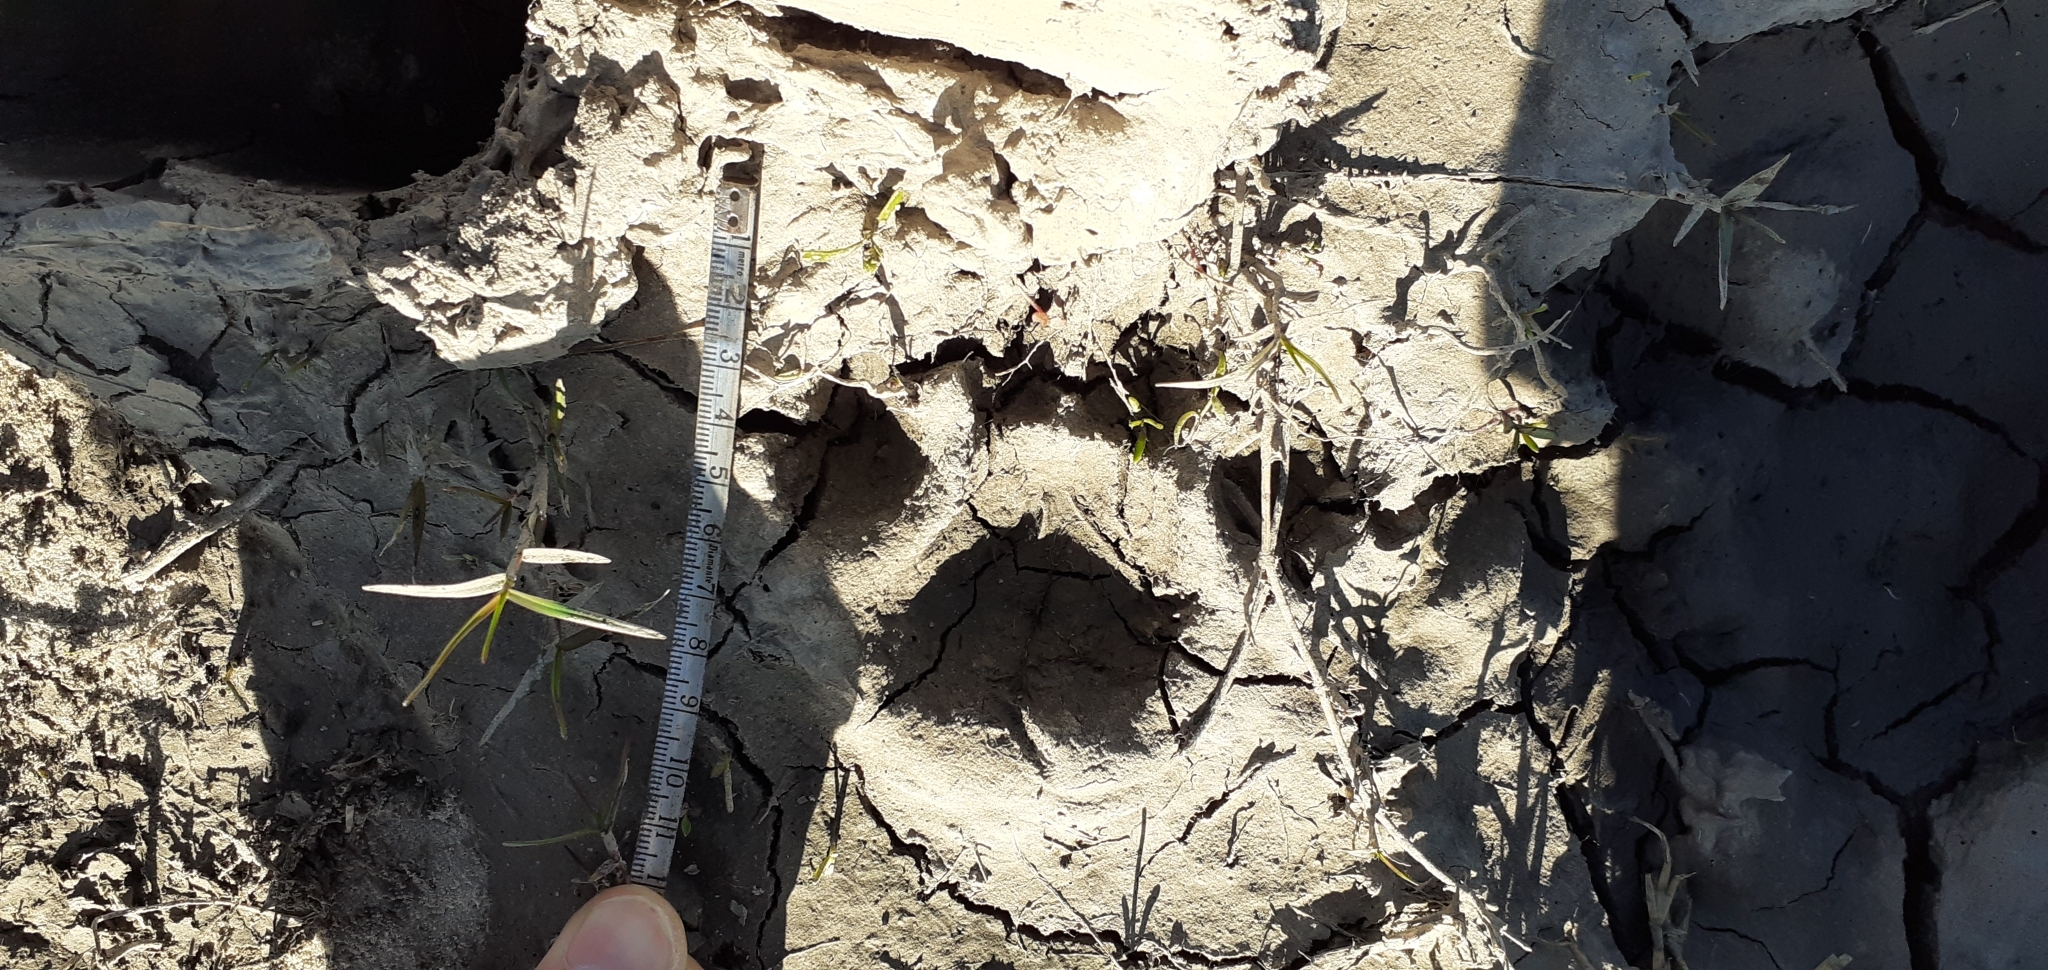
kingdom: Animalia
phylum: Chordata
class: Mammalia
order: Carnivora
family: Felidae
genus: Puma
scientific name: Puma concolor
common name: Puma
